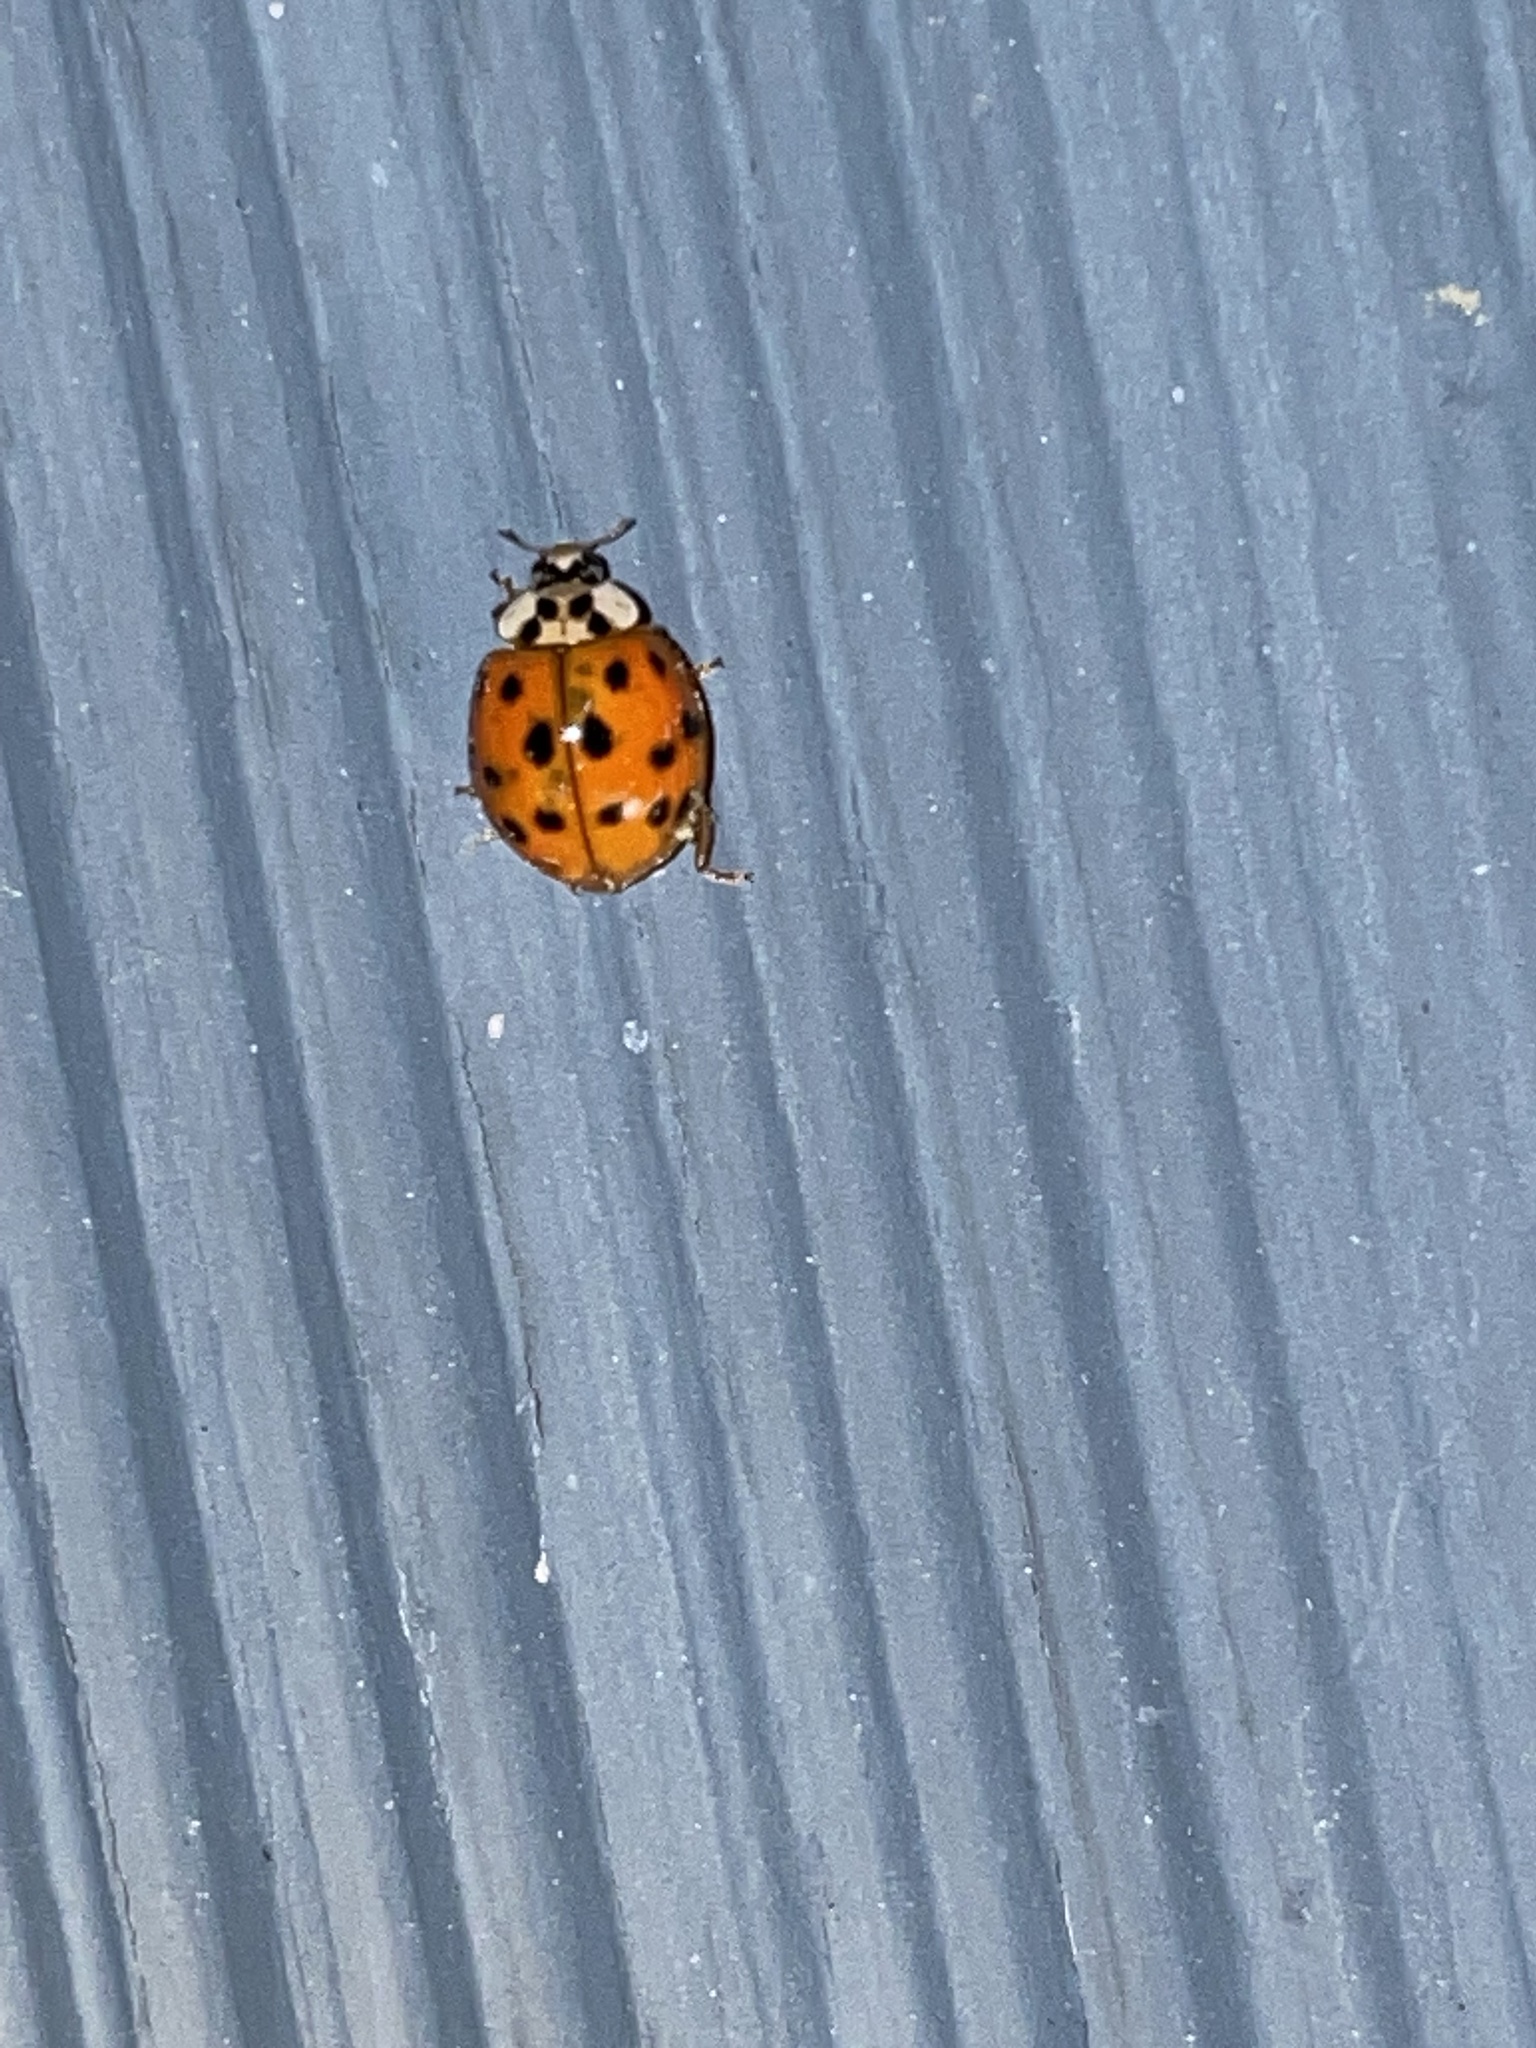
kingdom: Animalia
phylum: Arthropoda
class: Insecta
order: Coleoptera
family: Coccinellidae
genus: Harmonia
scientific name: Harmonia axyridis
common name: Harlequin ladybird
